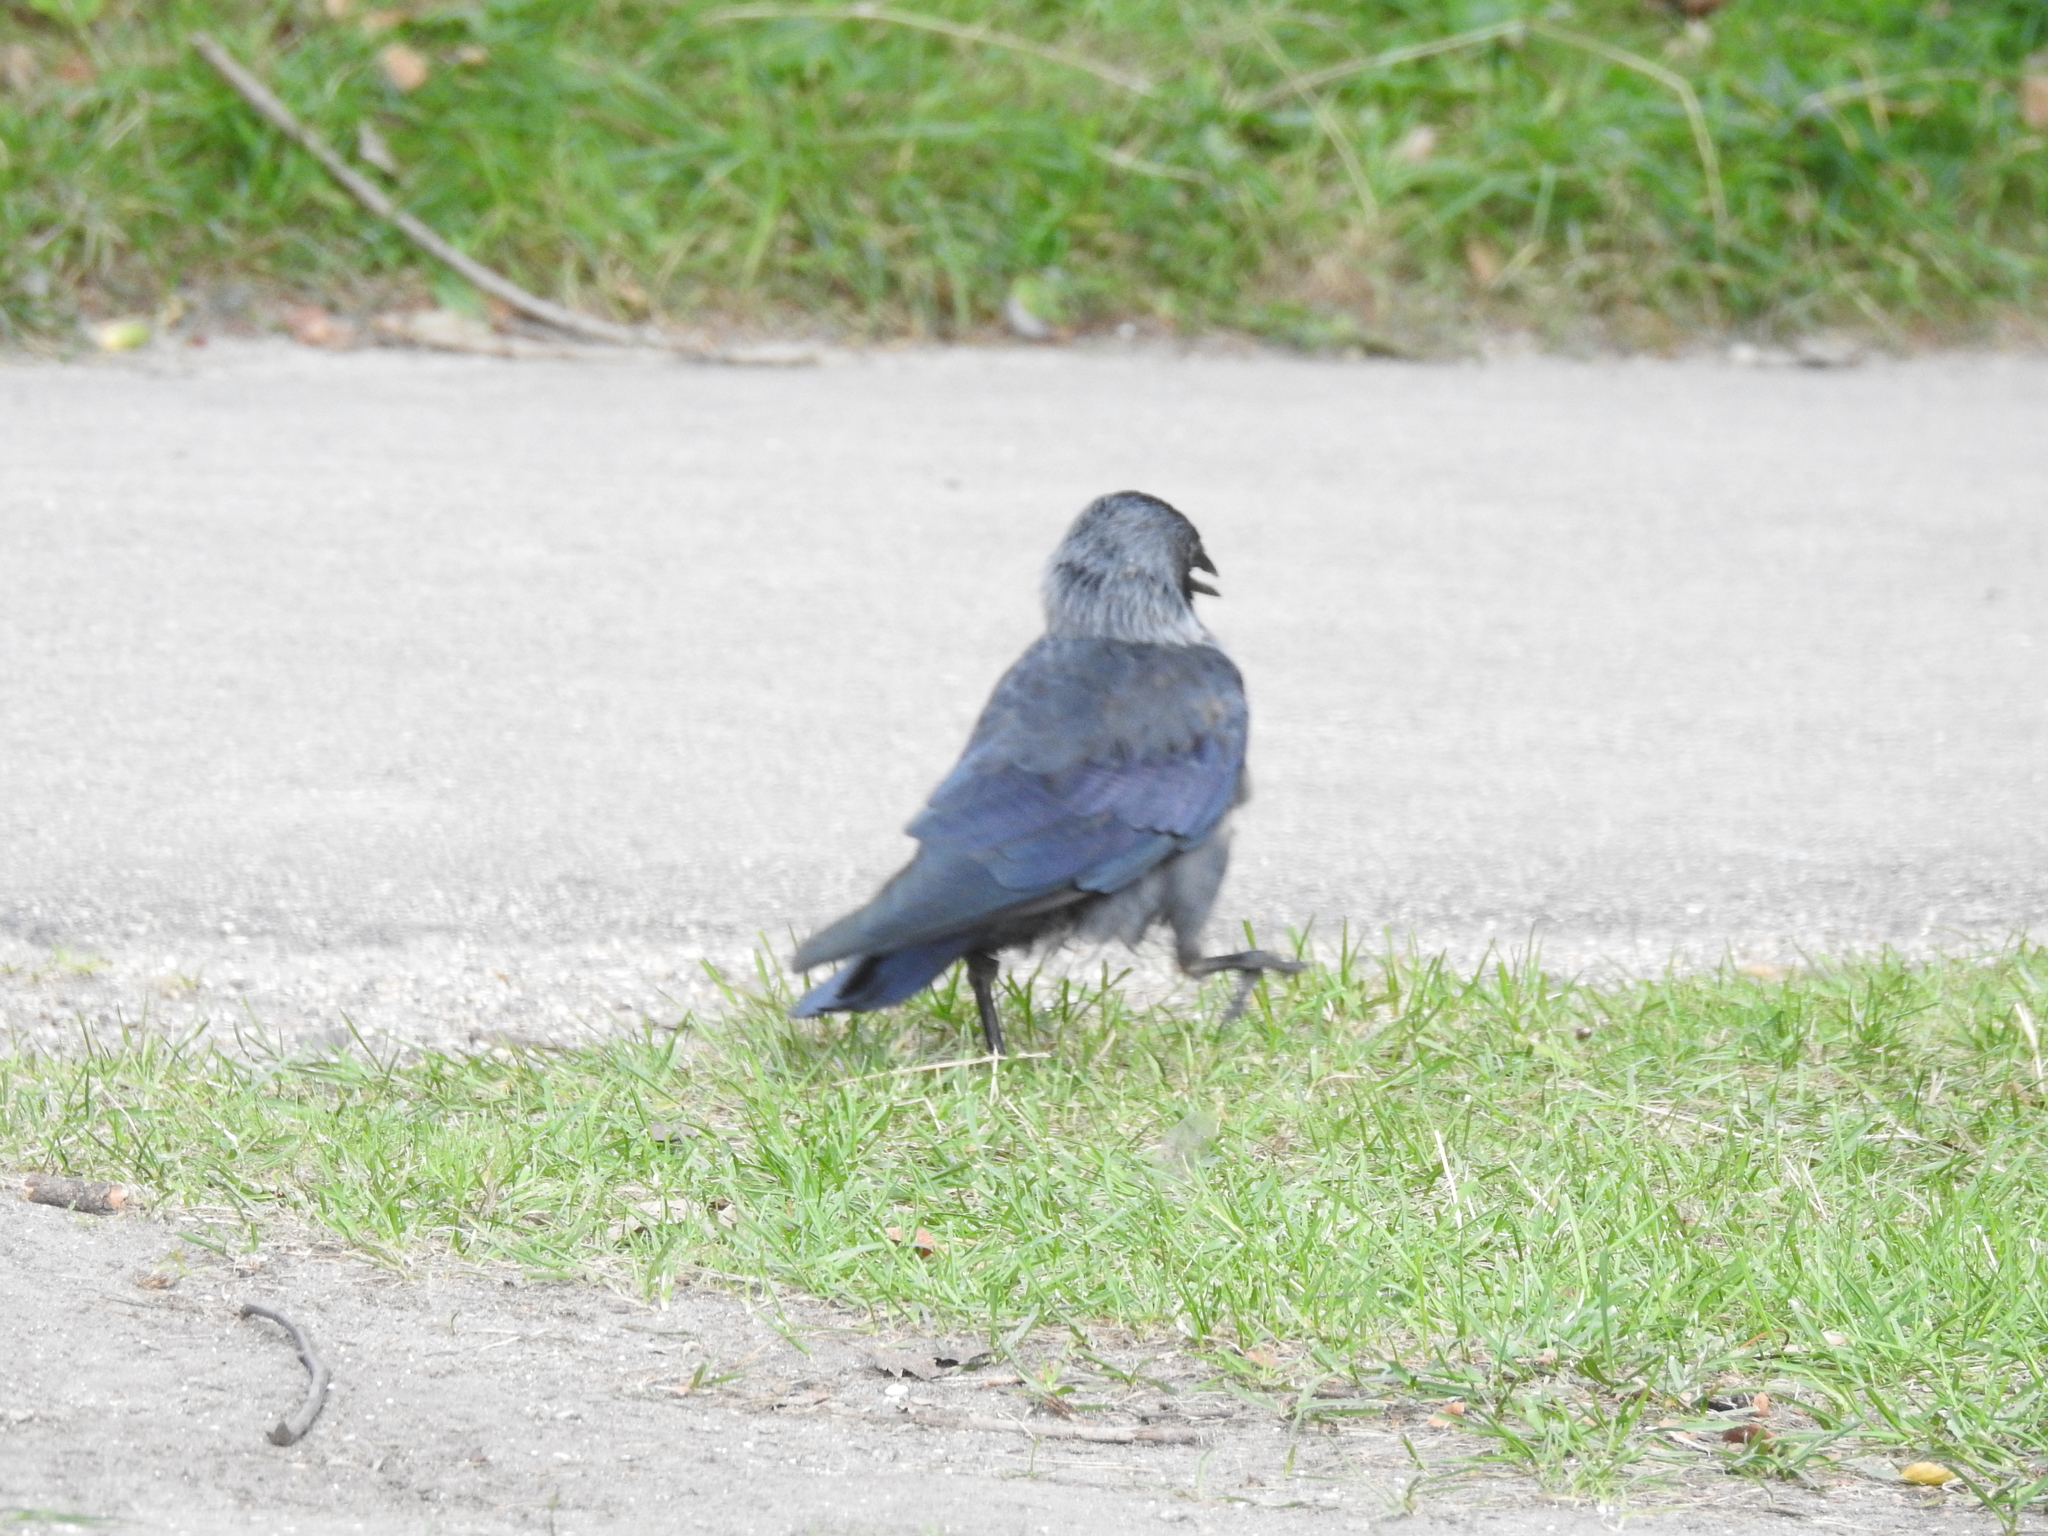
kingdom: Animalia
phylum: Chordata
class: Aves
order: Passeriformes
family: Corvidae
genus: Coloeus
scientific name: Coloeus monedula
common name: Western jackdaw
